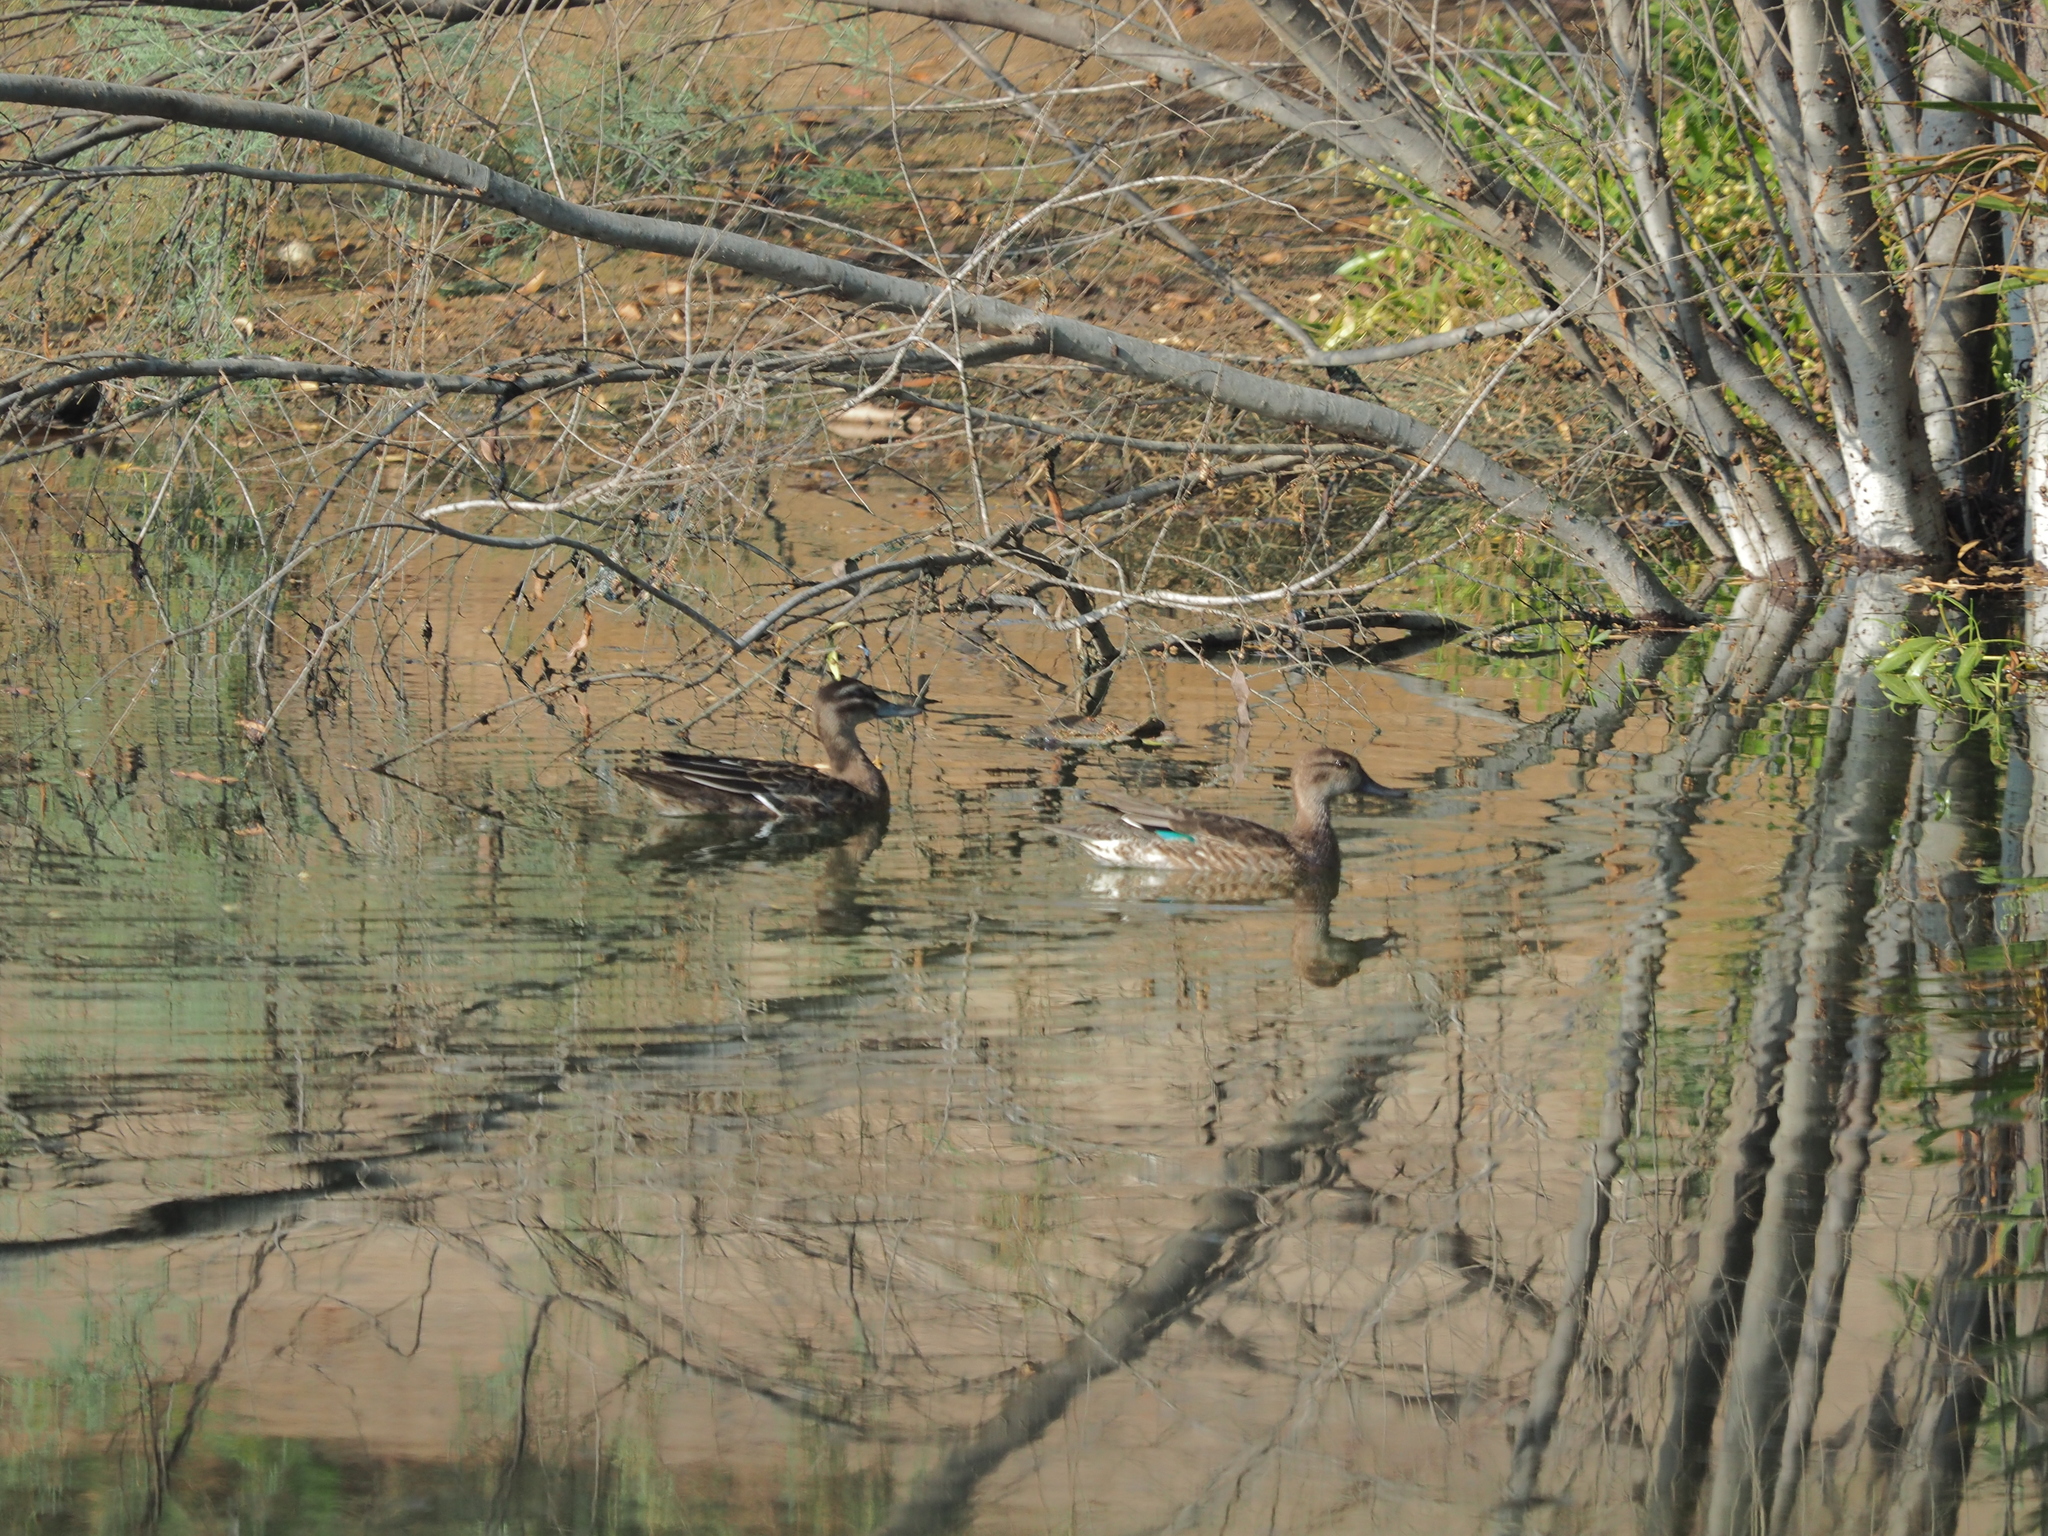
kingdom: Animalia
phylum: Chordata
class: Aves
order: Anseriformes
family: Anatidae
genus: Spatula
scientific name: Spatula querquedula
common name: Garganey
